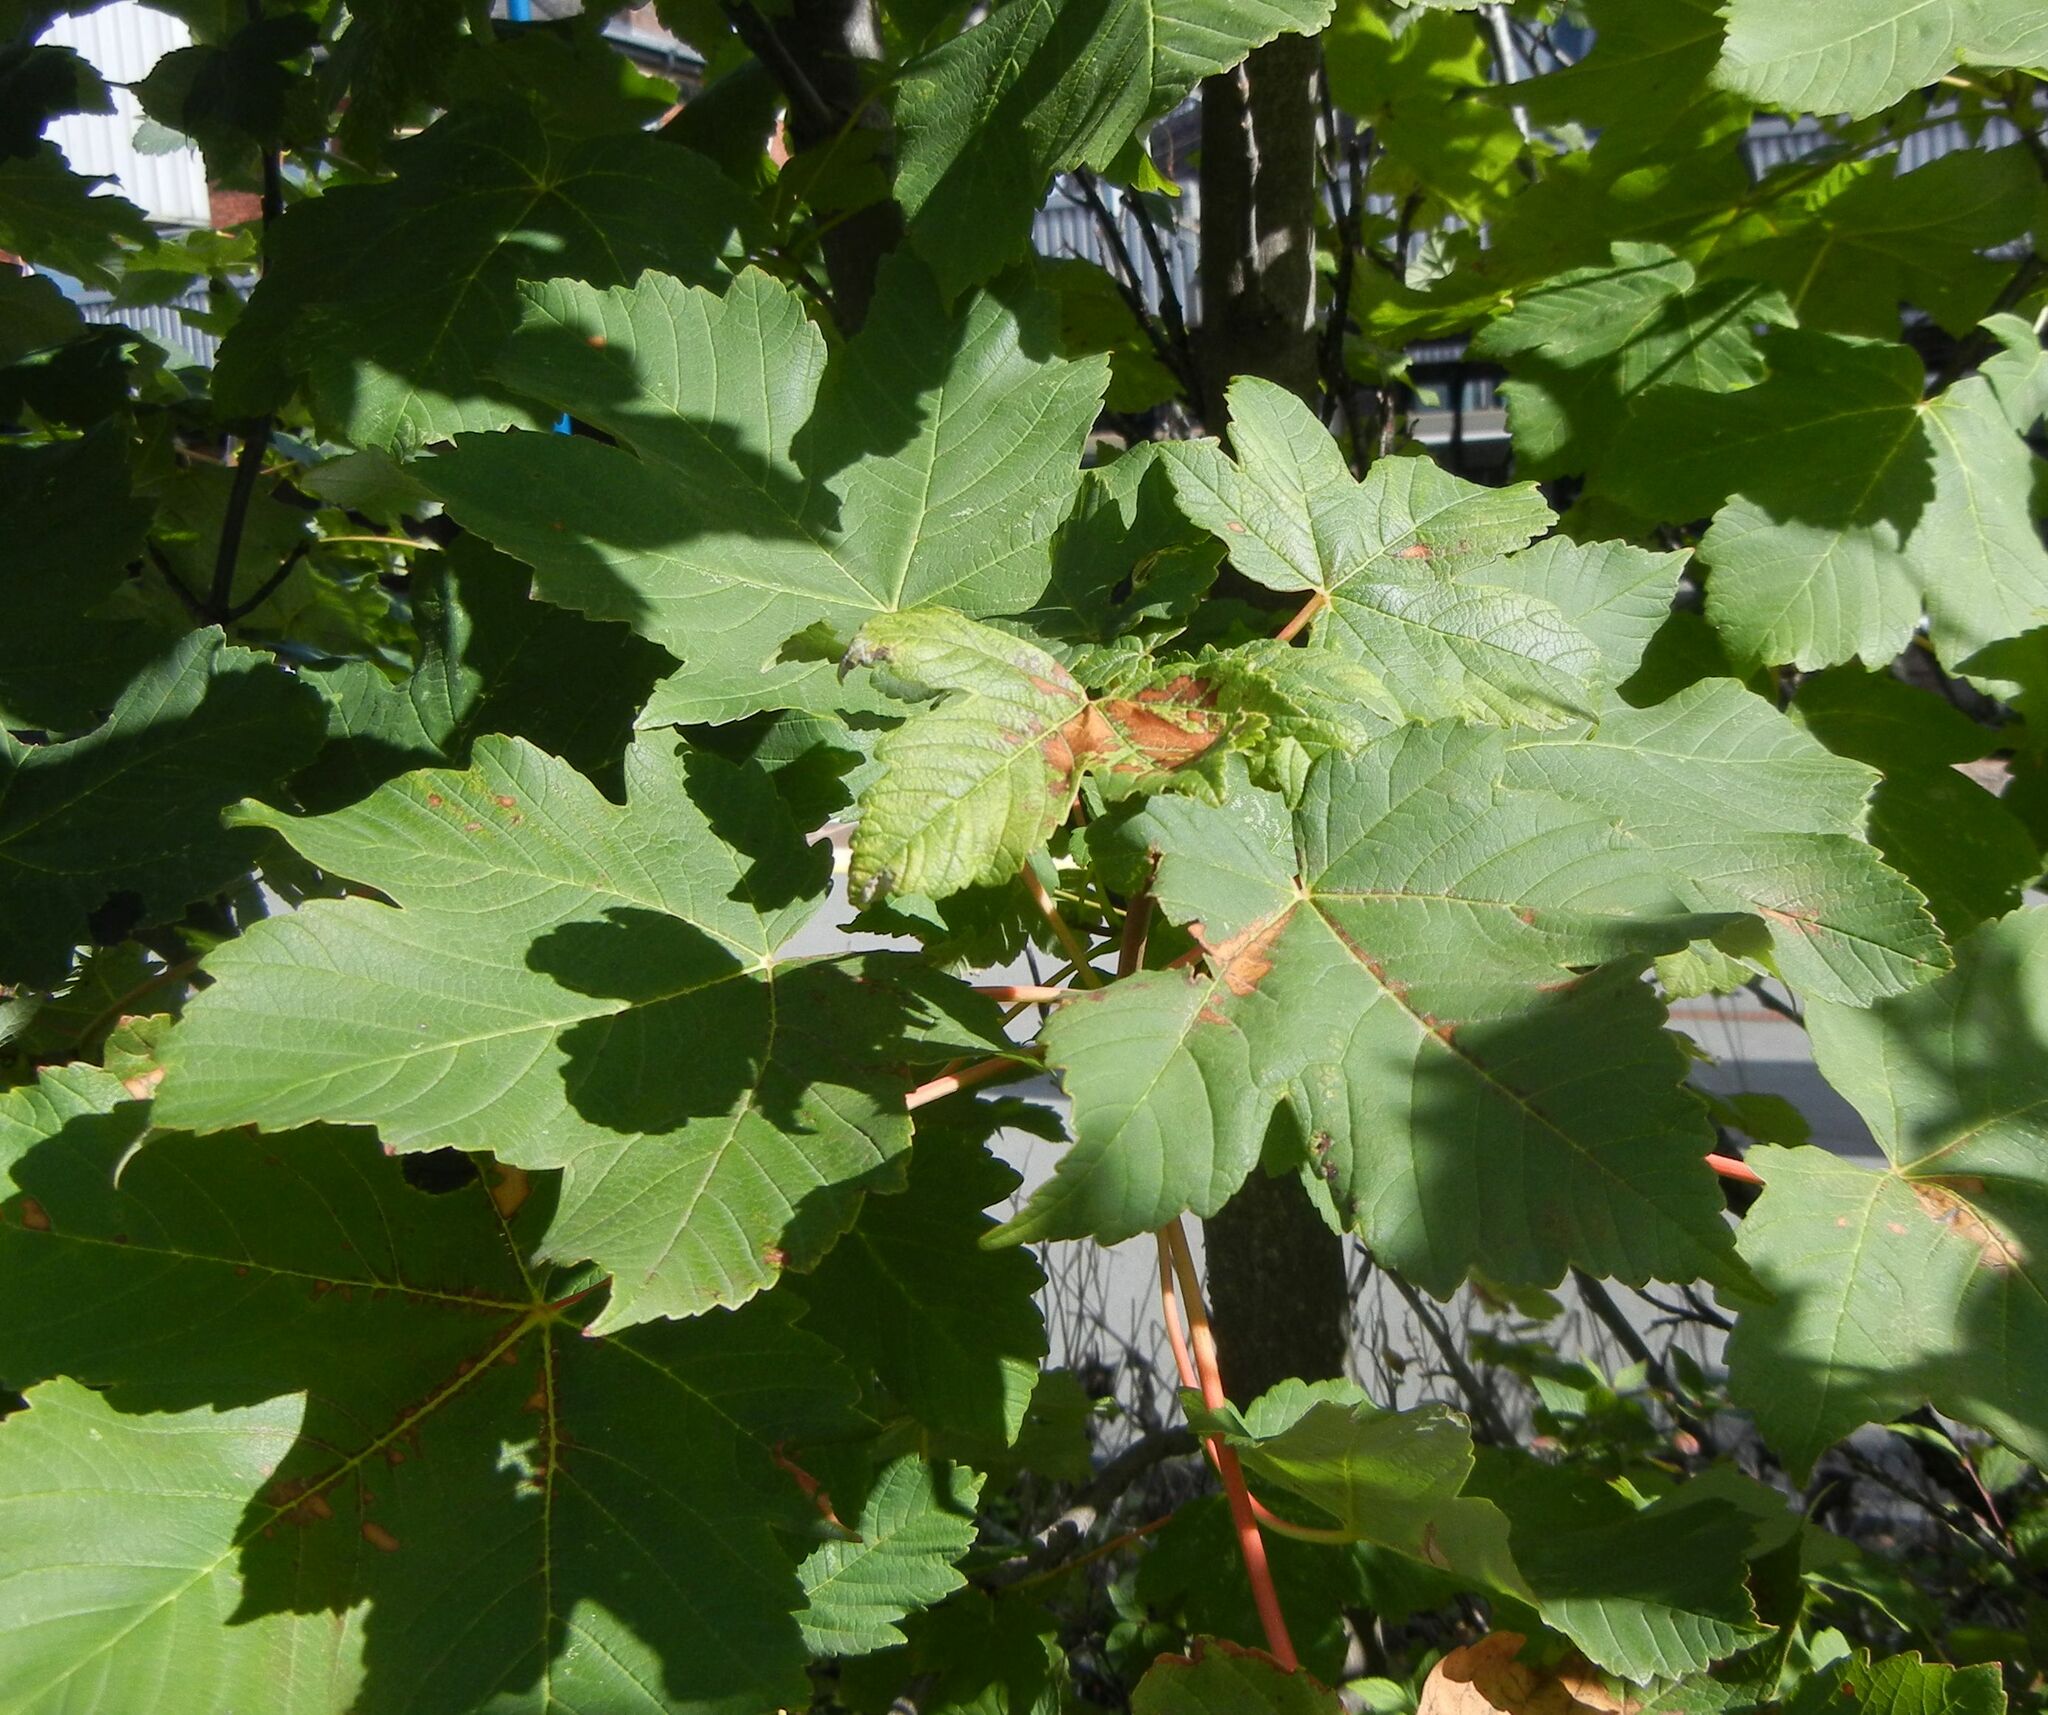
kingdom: Plantae
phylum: Tracheophyta
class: Magnoliopsida
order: Sapindales
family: Sapindaceae
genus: Acer
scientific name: Acer pseudoplatanus
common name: Sycamore
